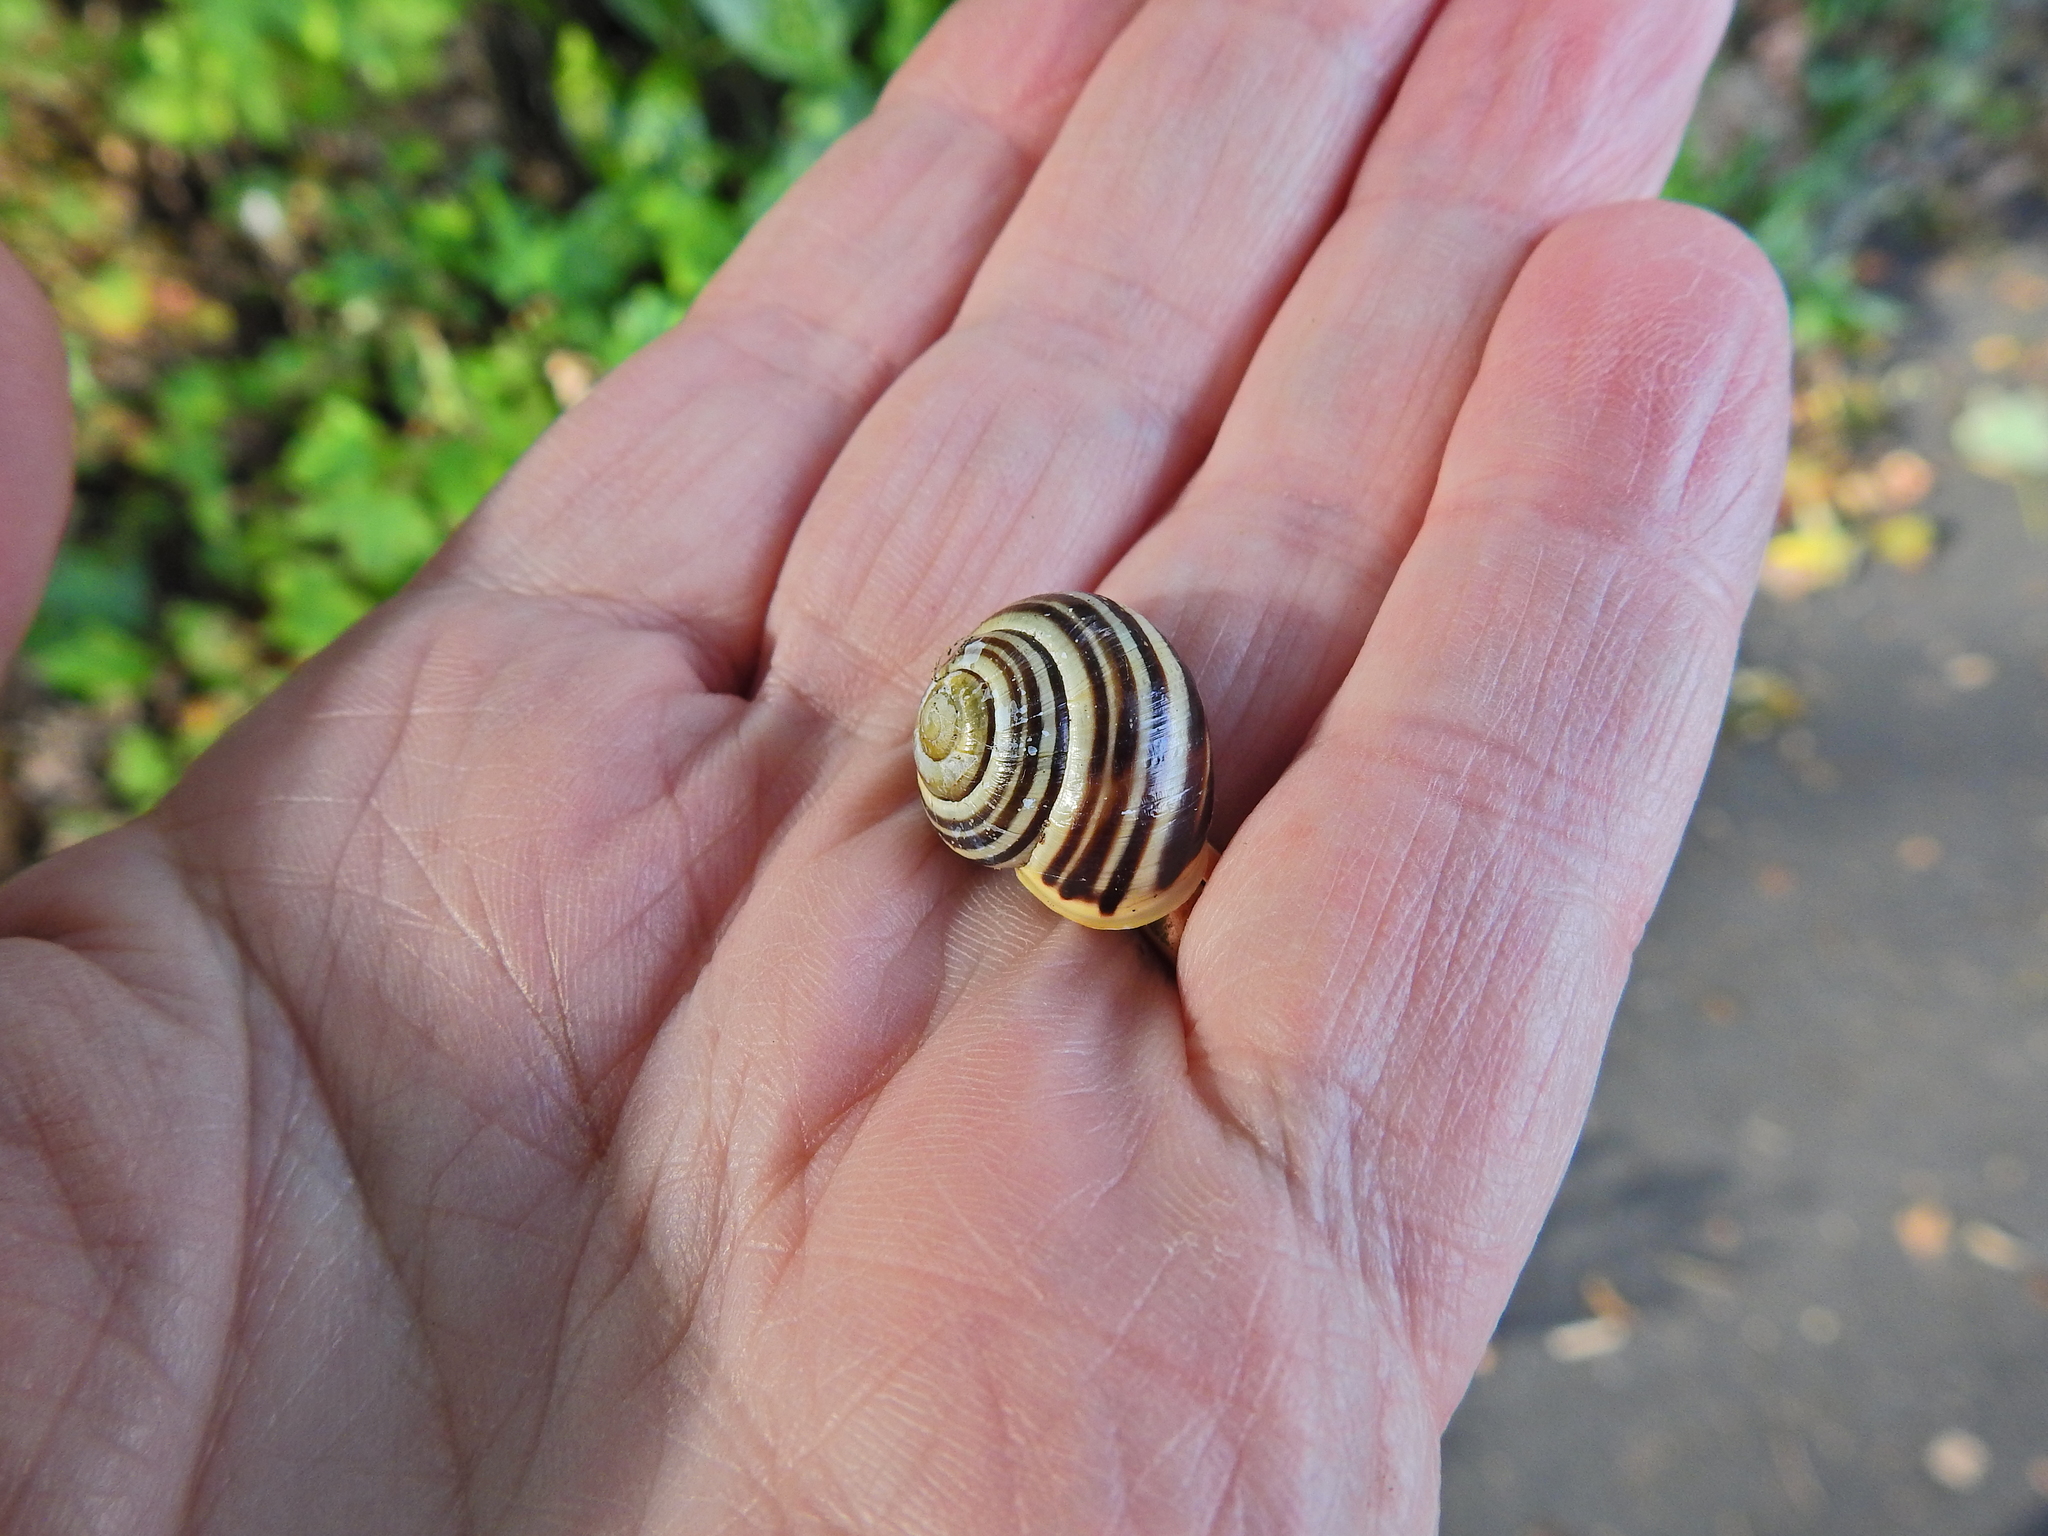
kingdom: Animalia
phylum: Mollusca
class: Gastropoda
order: Stylommatophora
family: Helicidae
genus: Cepaea
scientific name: Cepaea hortensis
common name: White-lip gardensnail
